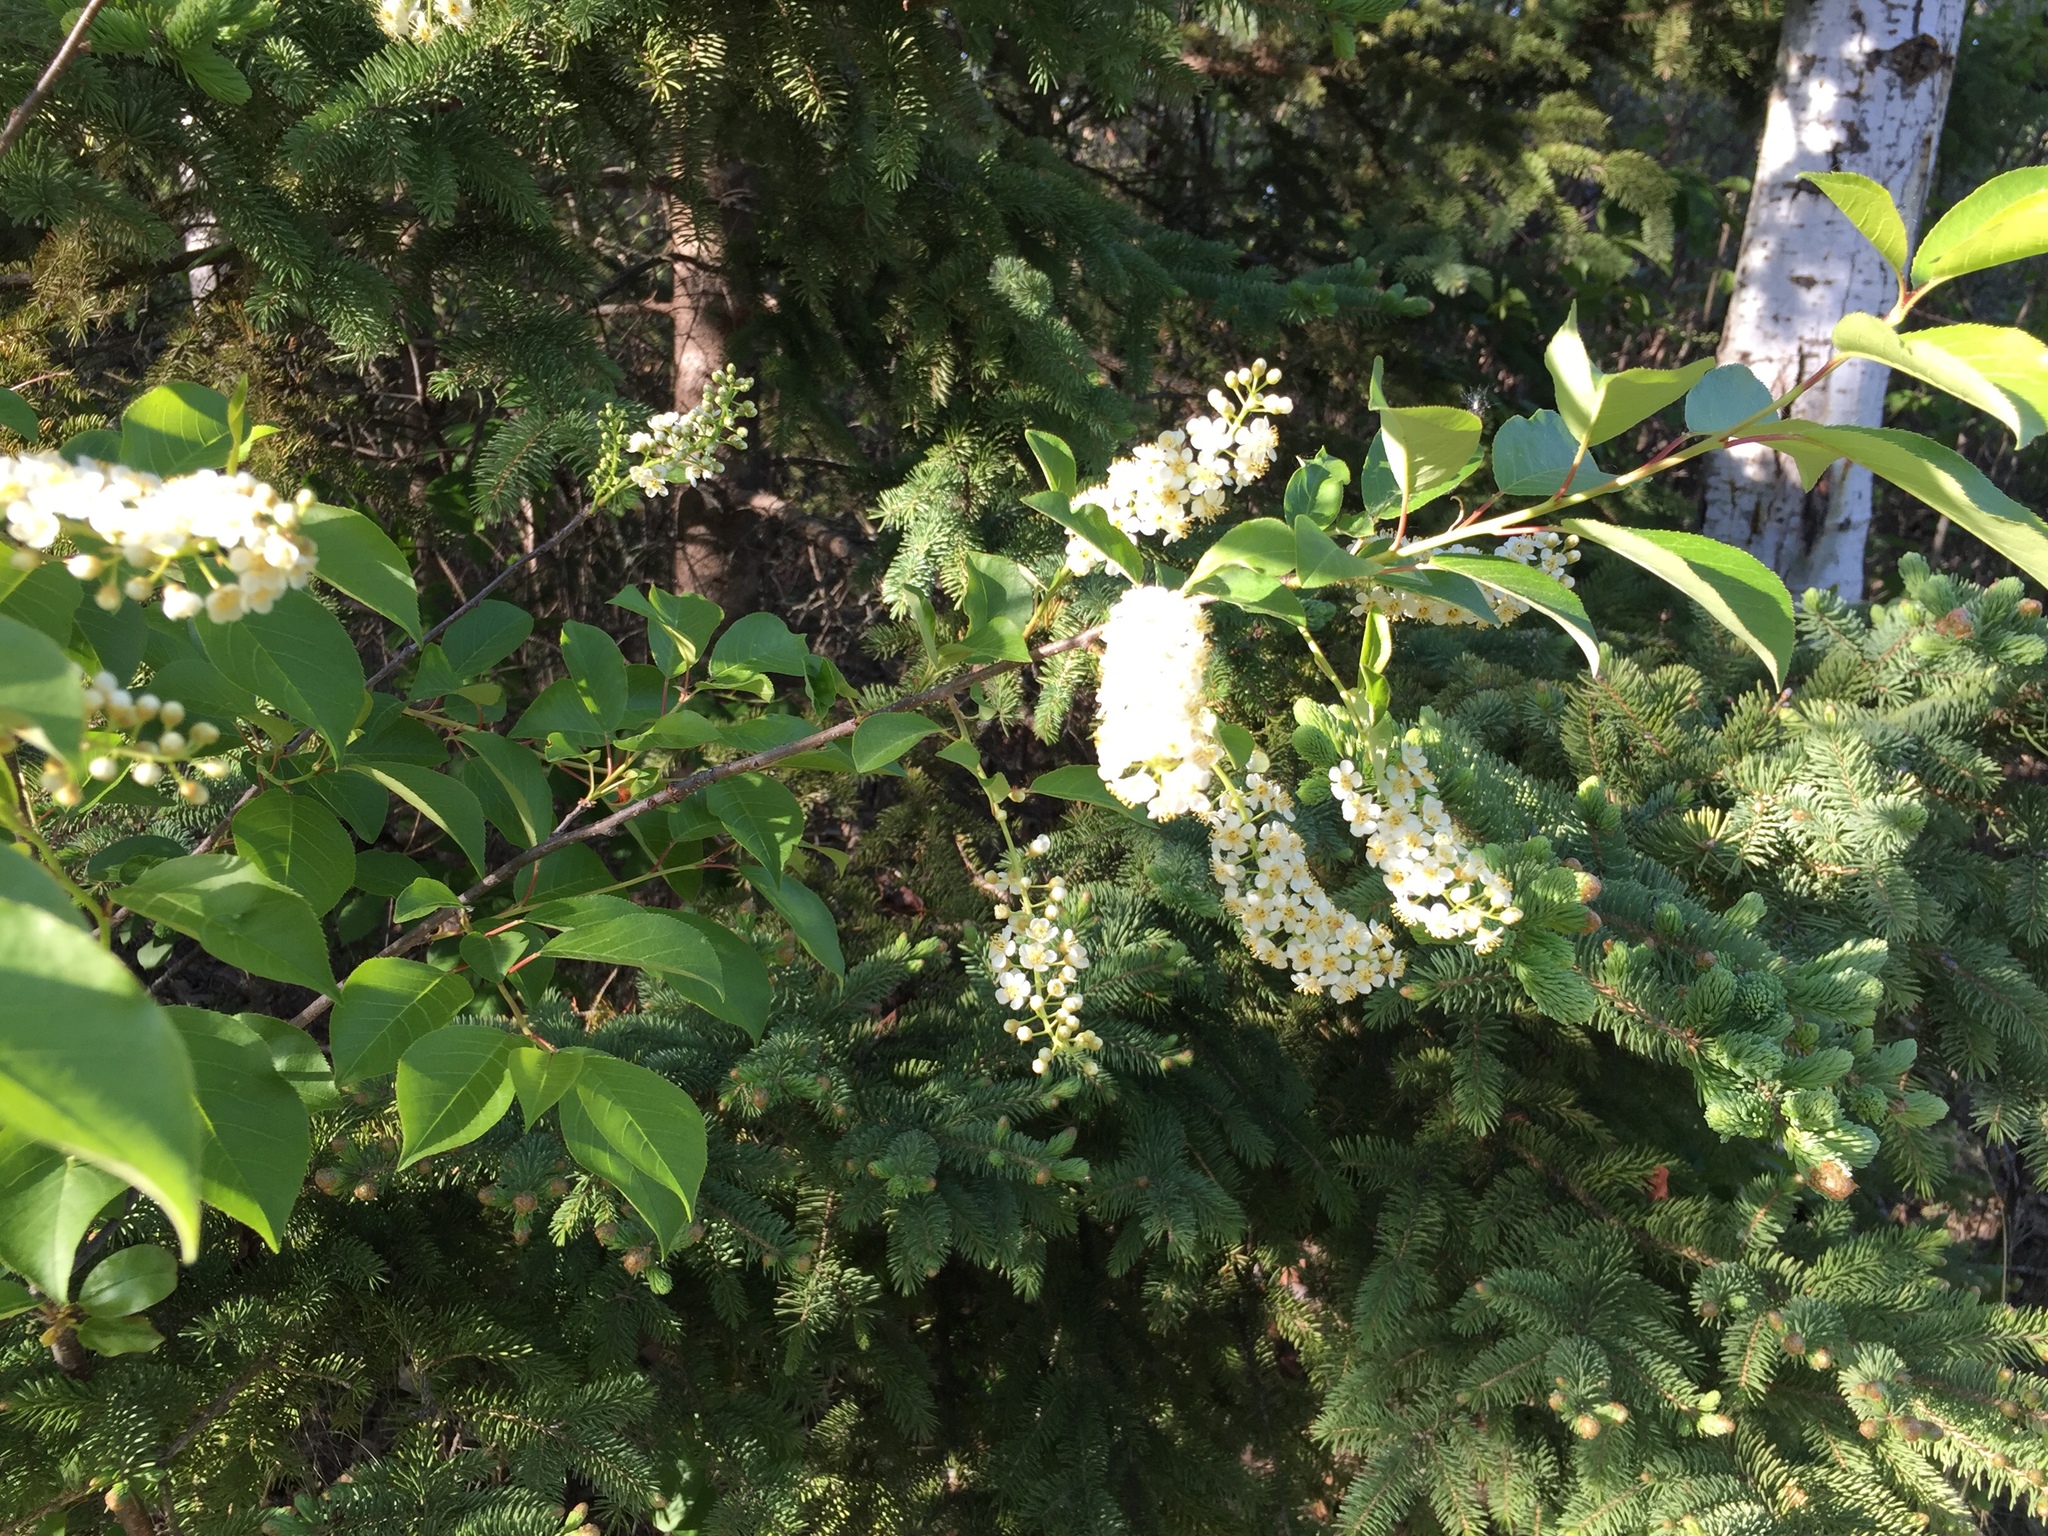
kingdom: Plantae
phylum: Tracheophyta
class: Magnoliopsida
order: Rosales
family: Rosaceae
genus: Prunus
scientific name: Prunus virginiana
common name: Chokecherry
